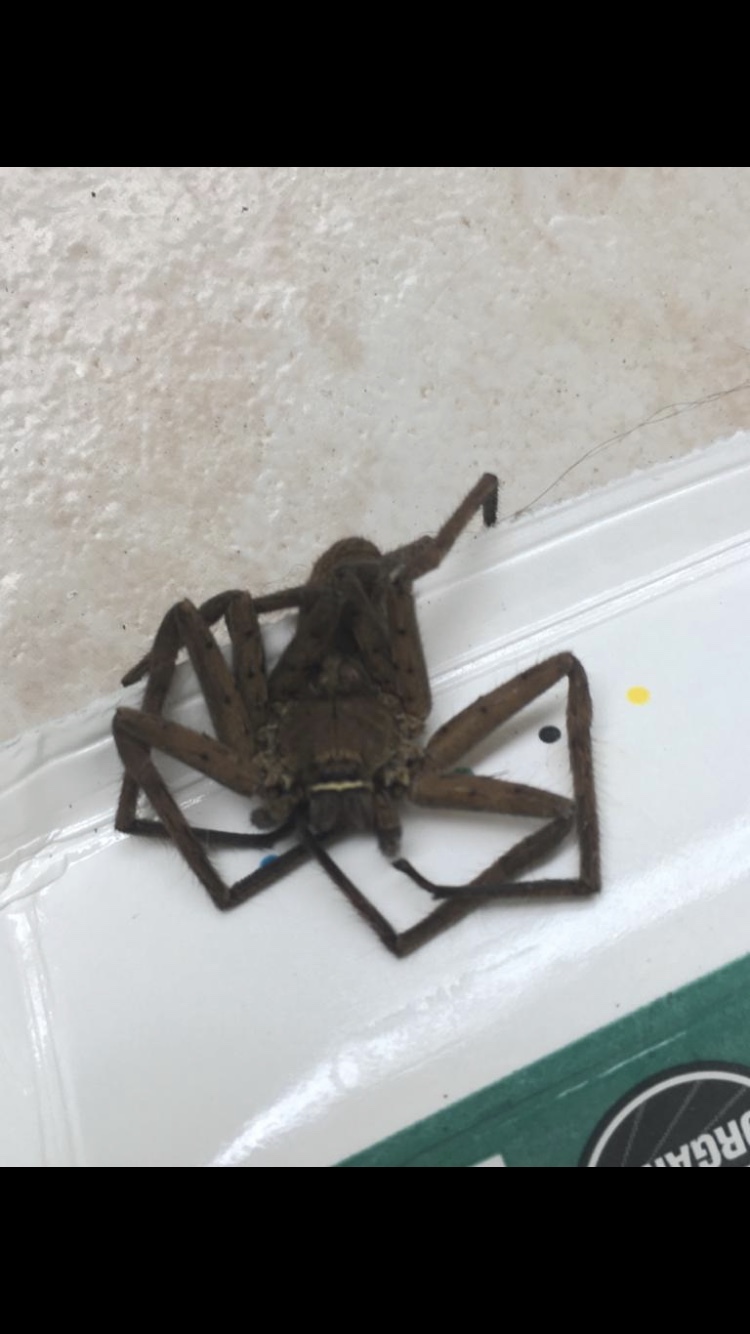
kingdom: Animalia
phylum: Arthropoda
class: Arachnida
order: Araneae
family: Sparassidae
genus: Heteropoda
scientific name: Heteropoda venatoria
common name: Huntsman spider
